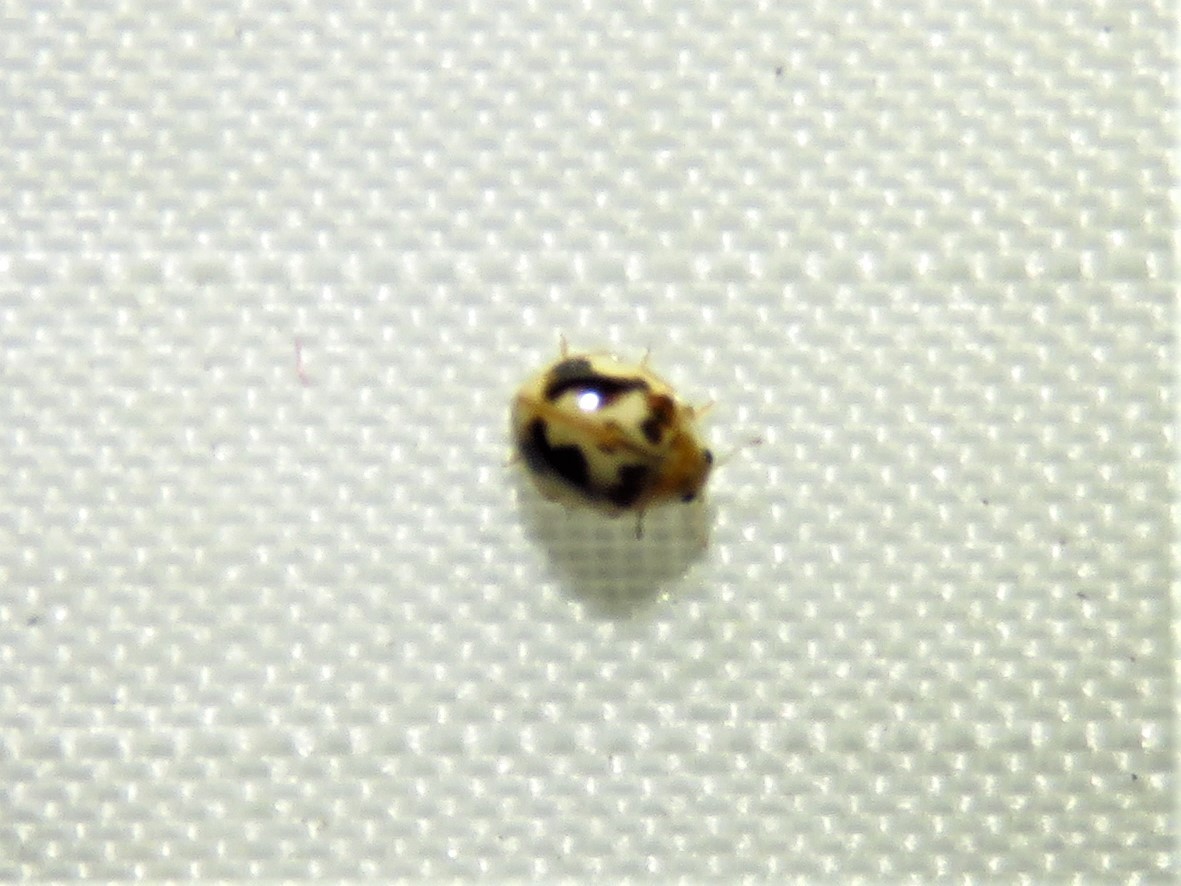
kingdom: Animalia
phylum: Arthropoda
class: Insecta
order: Coleoptera
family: Coccinellidae
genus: Psyllobora
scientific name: Psyllobora renifer
